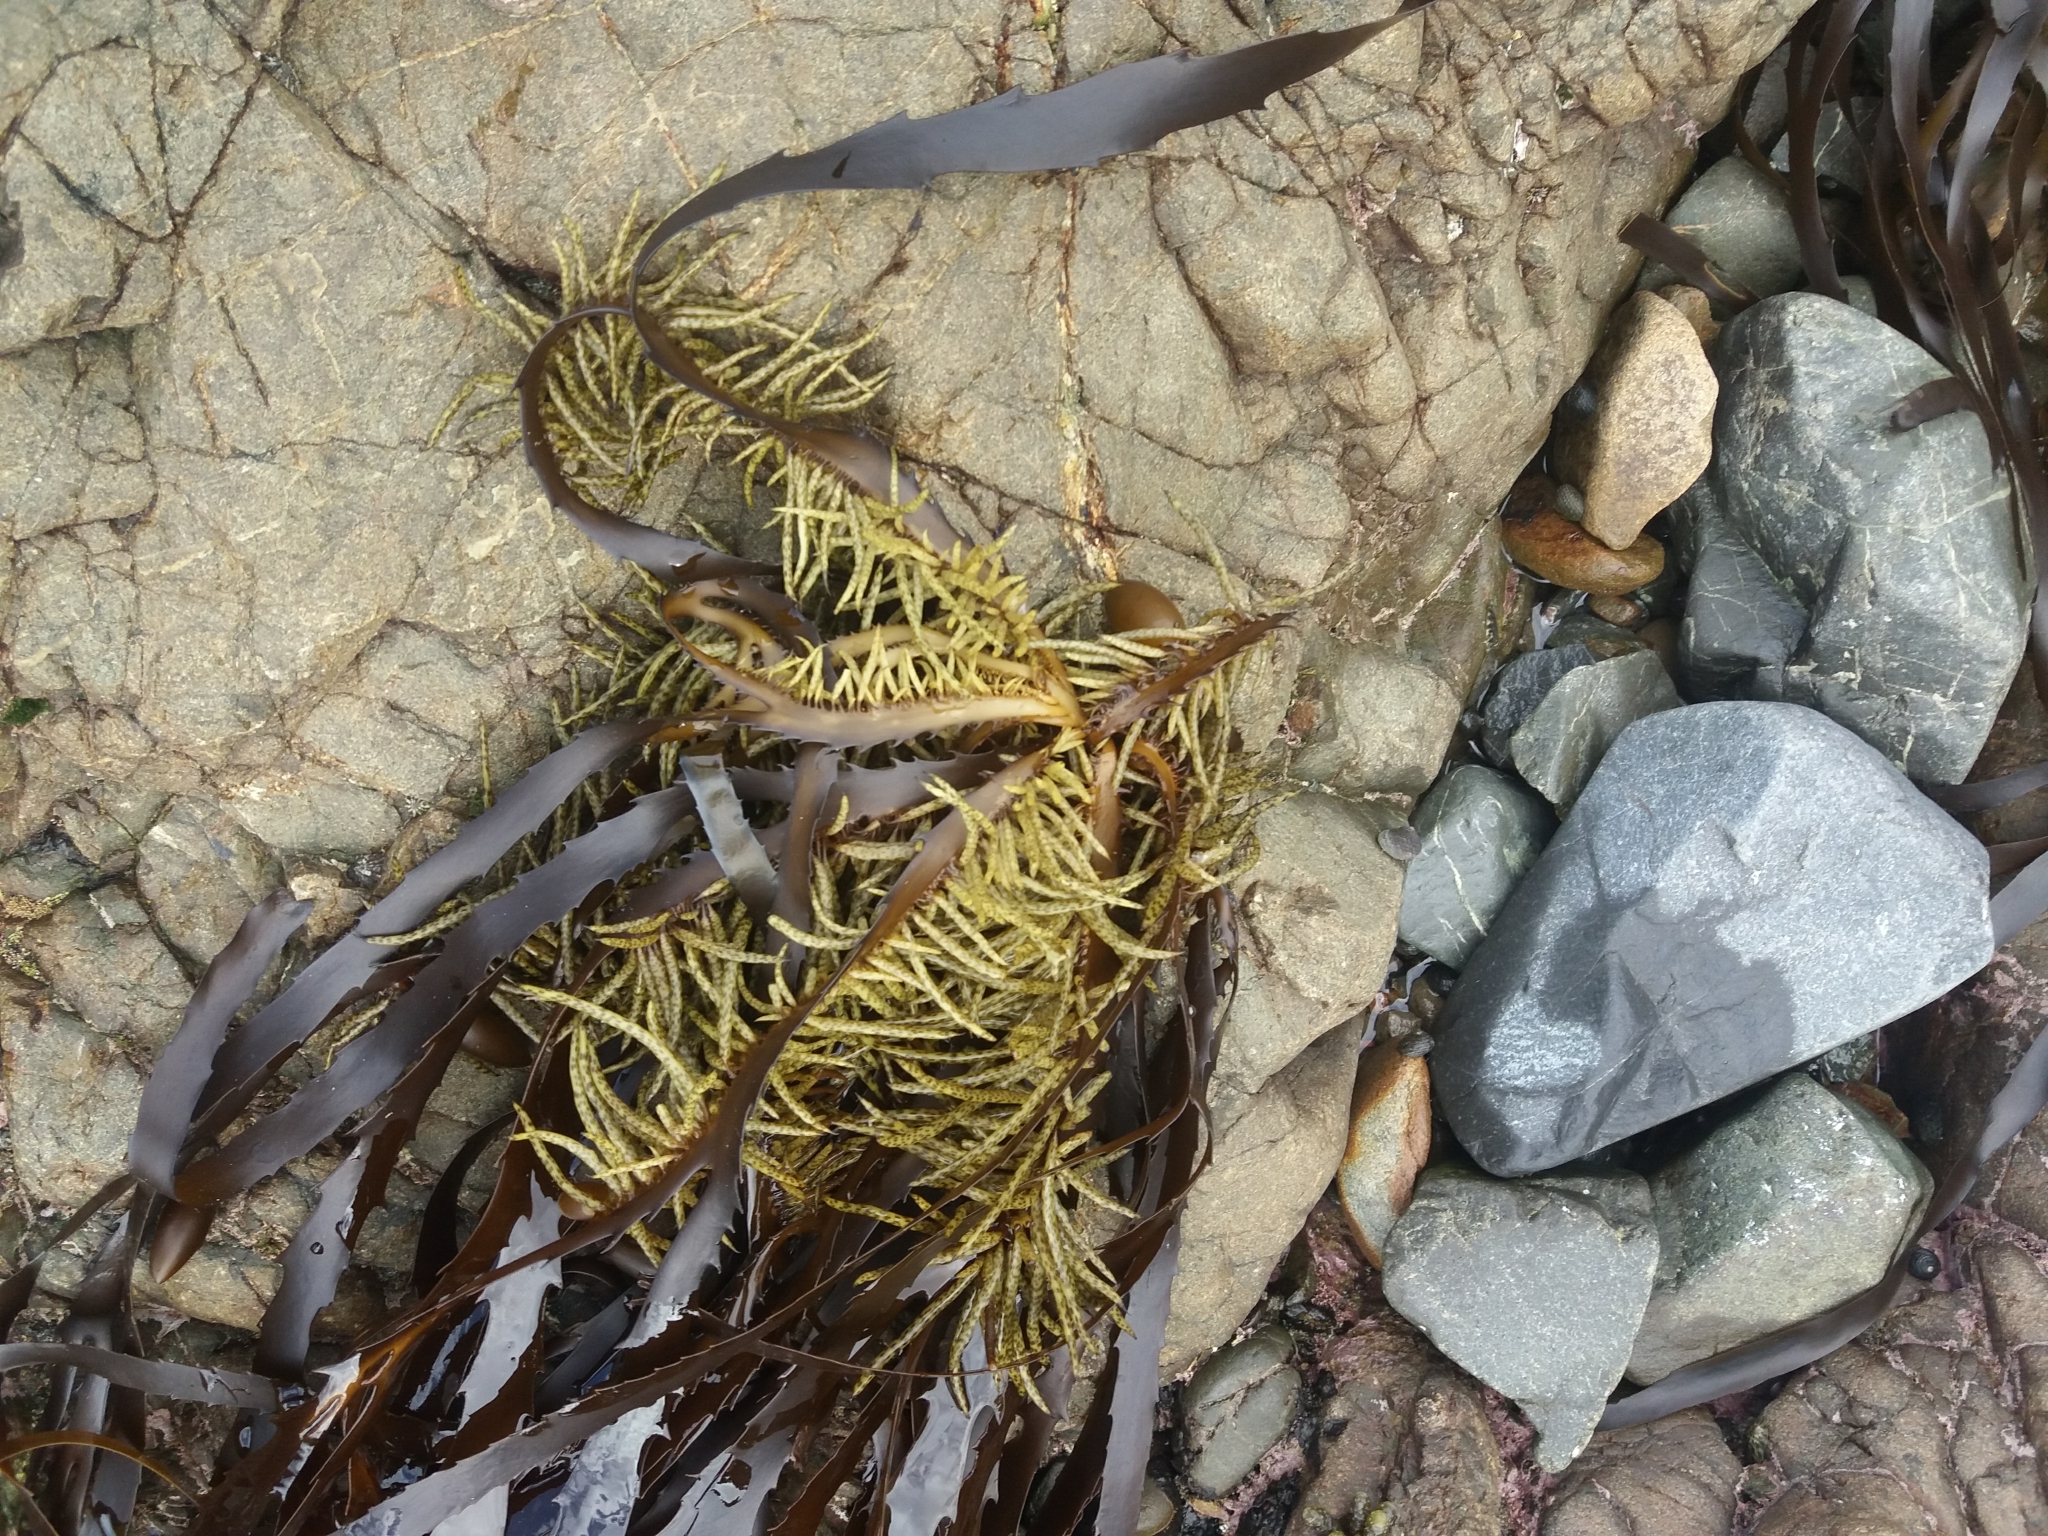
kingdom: Chromista
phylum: Ochrophyta
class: Phaeophyceae
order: Fucales
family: Seirococcaceae
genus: Marginariella
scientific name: Marginariella boryana
